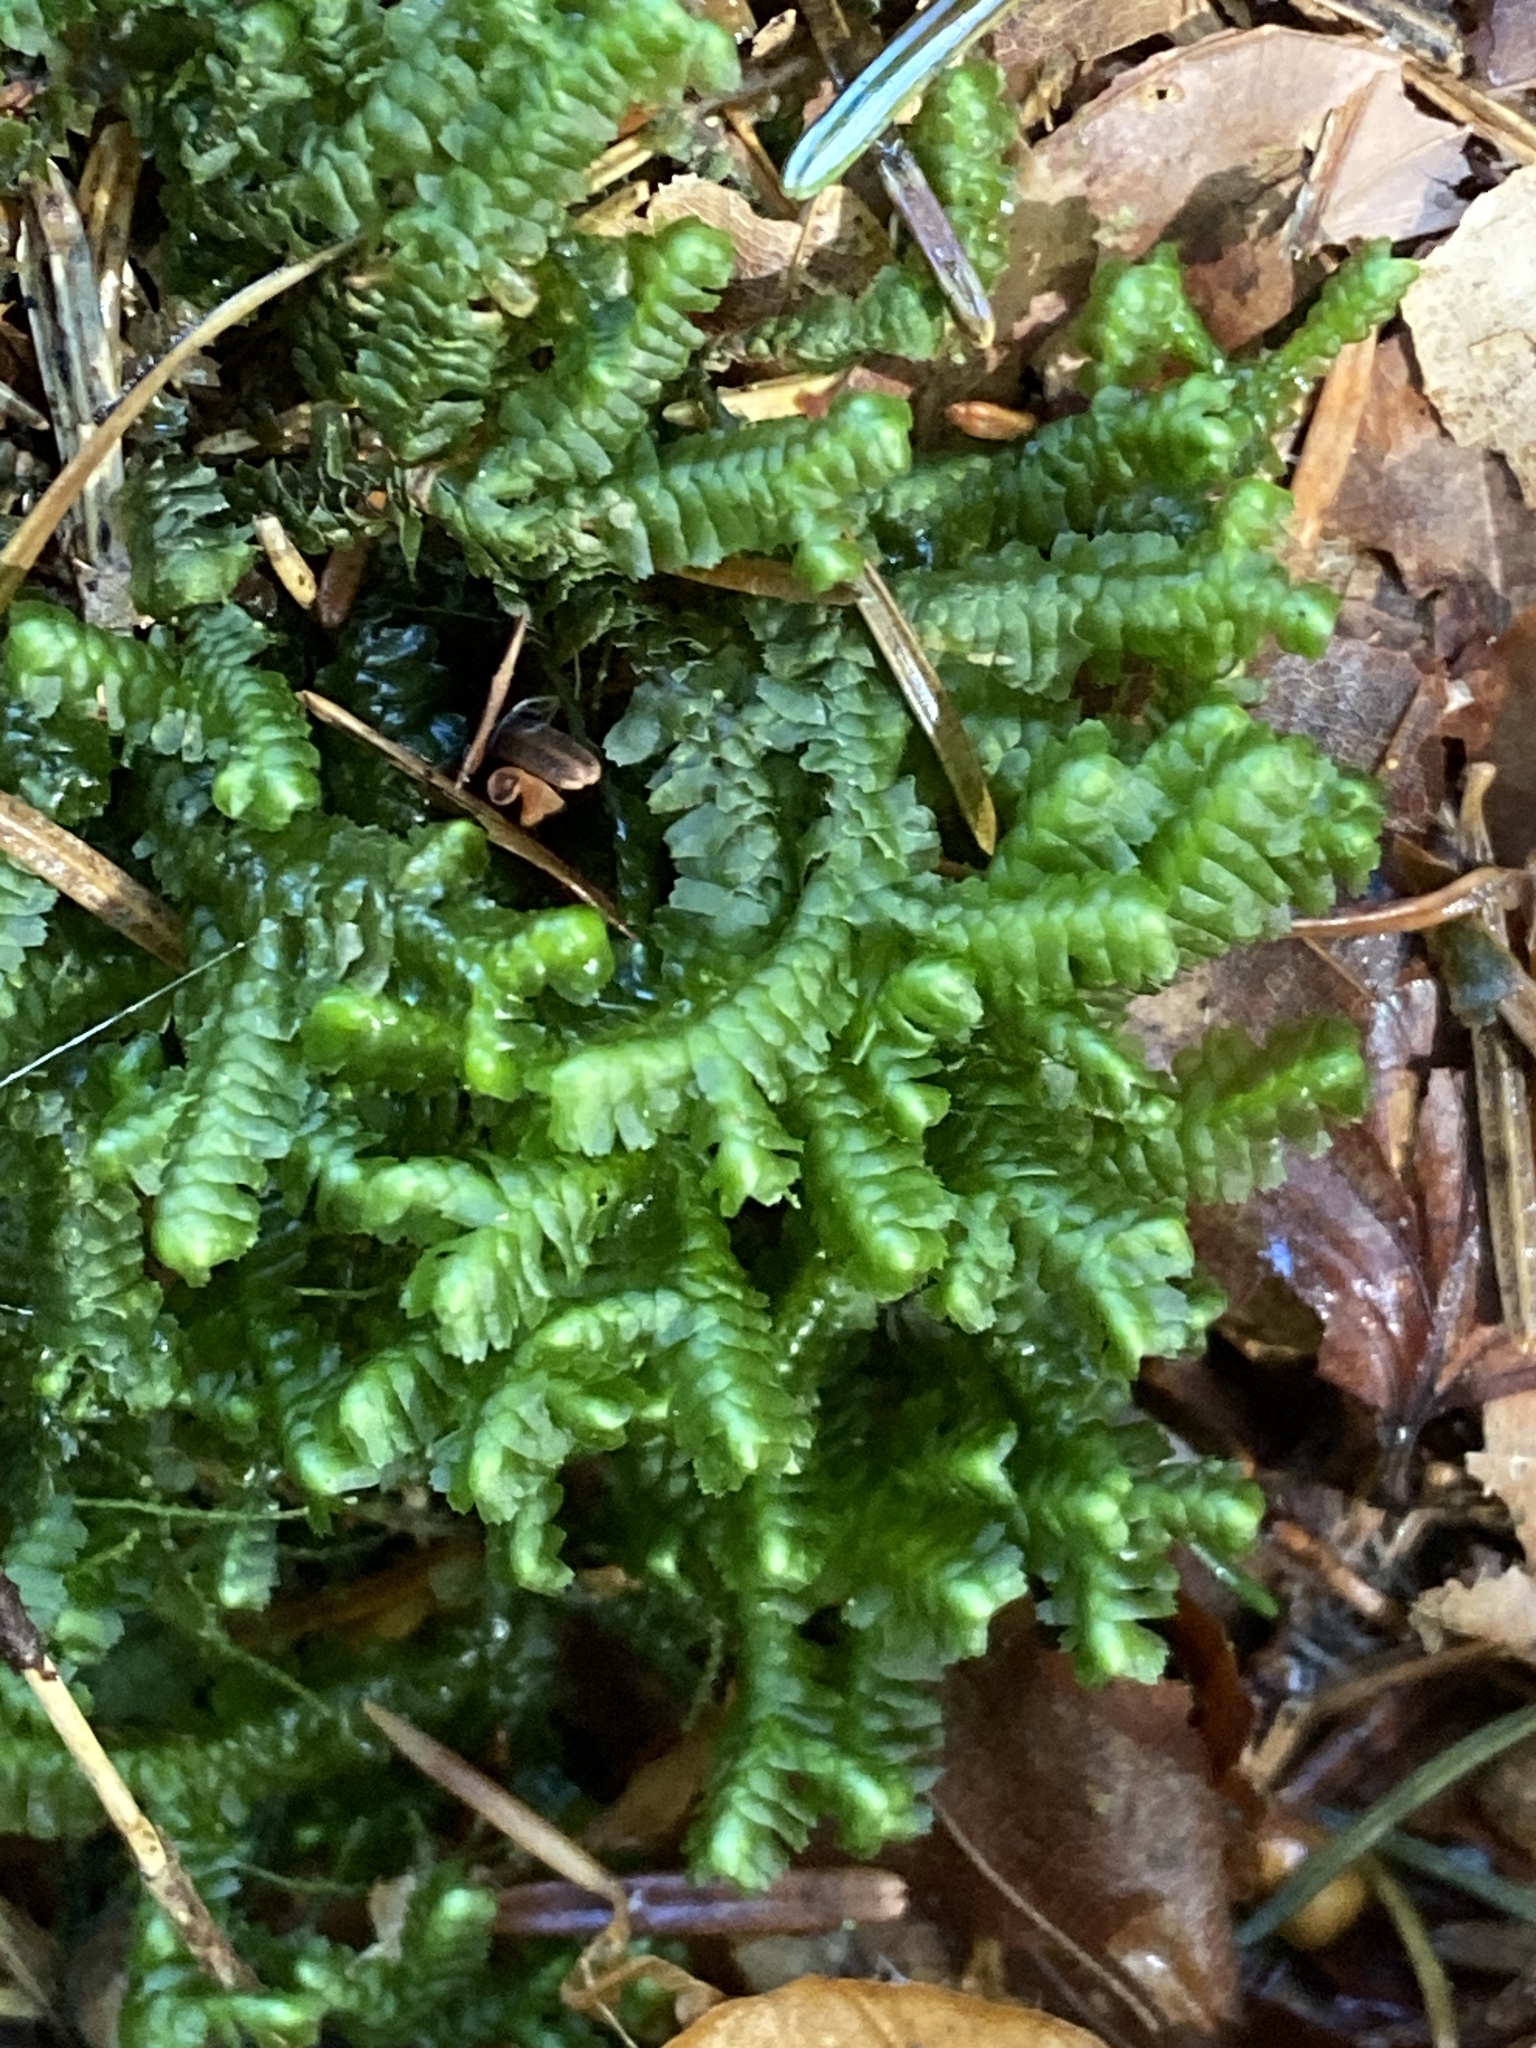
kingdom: Plantae
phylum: Marchantiophyta
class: Jungermanniopsida
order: Jungermanniales
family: Lepidoziaceae
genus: Bazzania
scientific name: Bazzania trilobata
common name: Three-lobed whipwort
